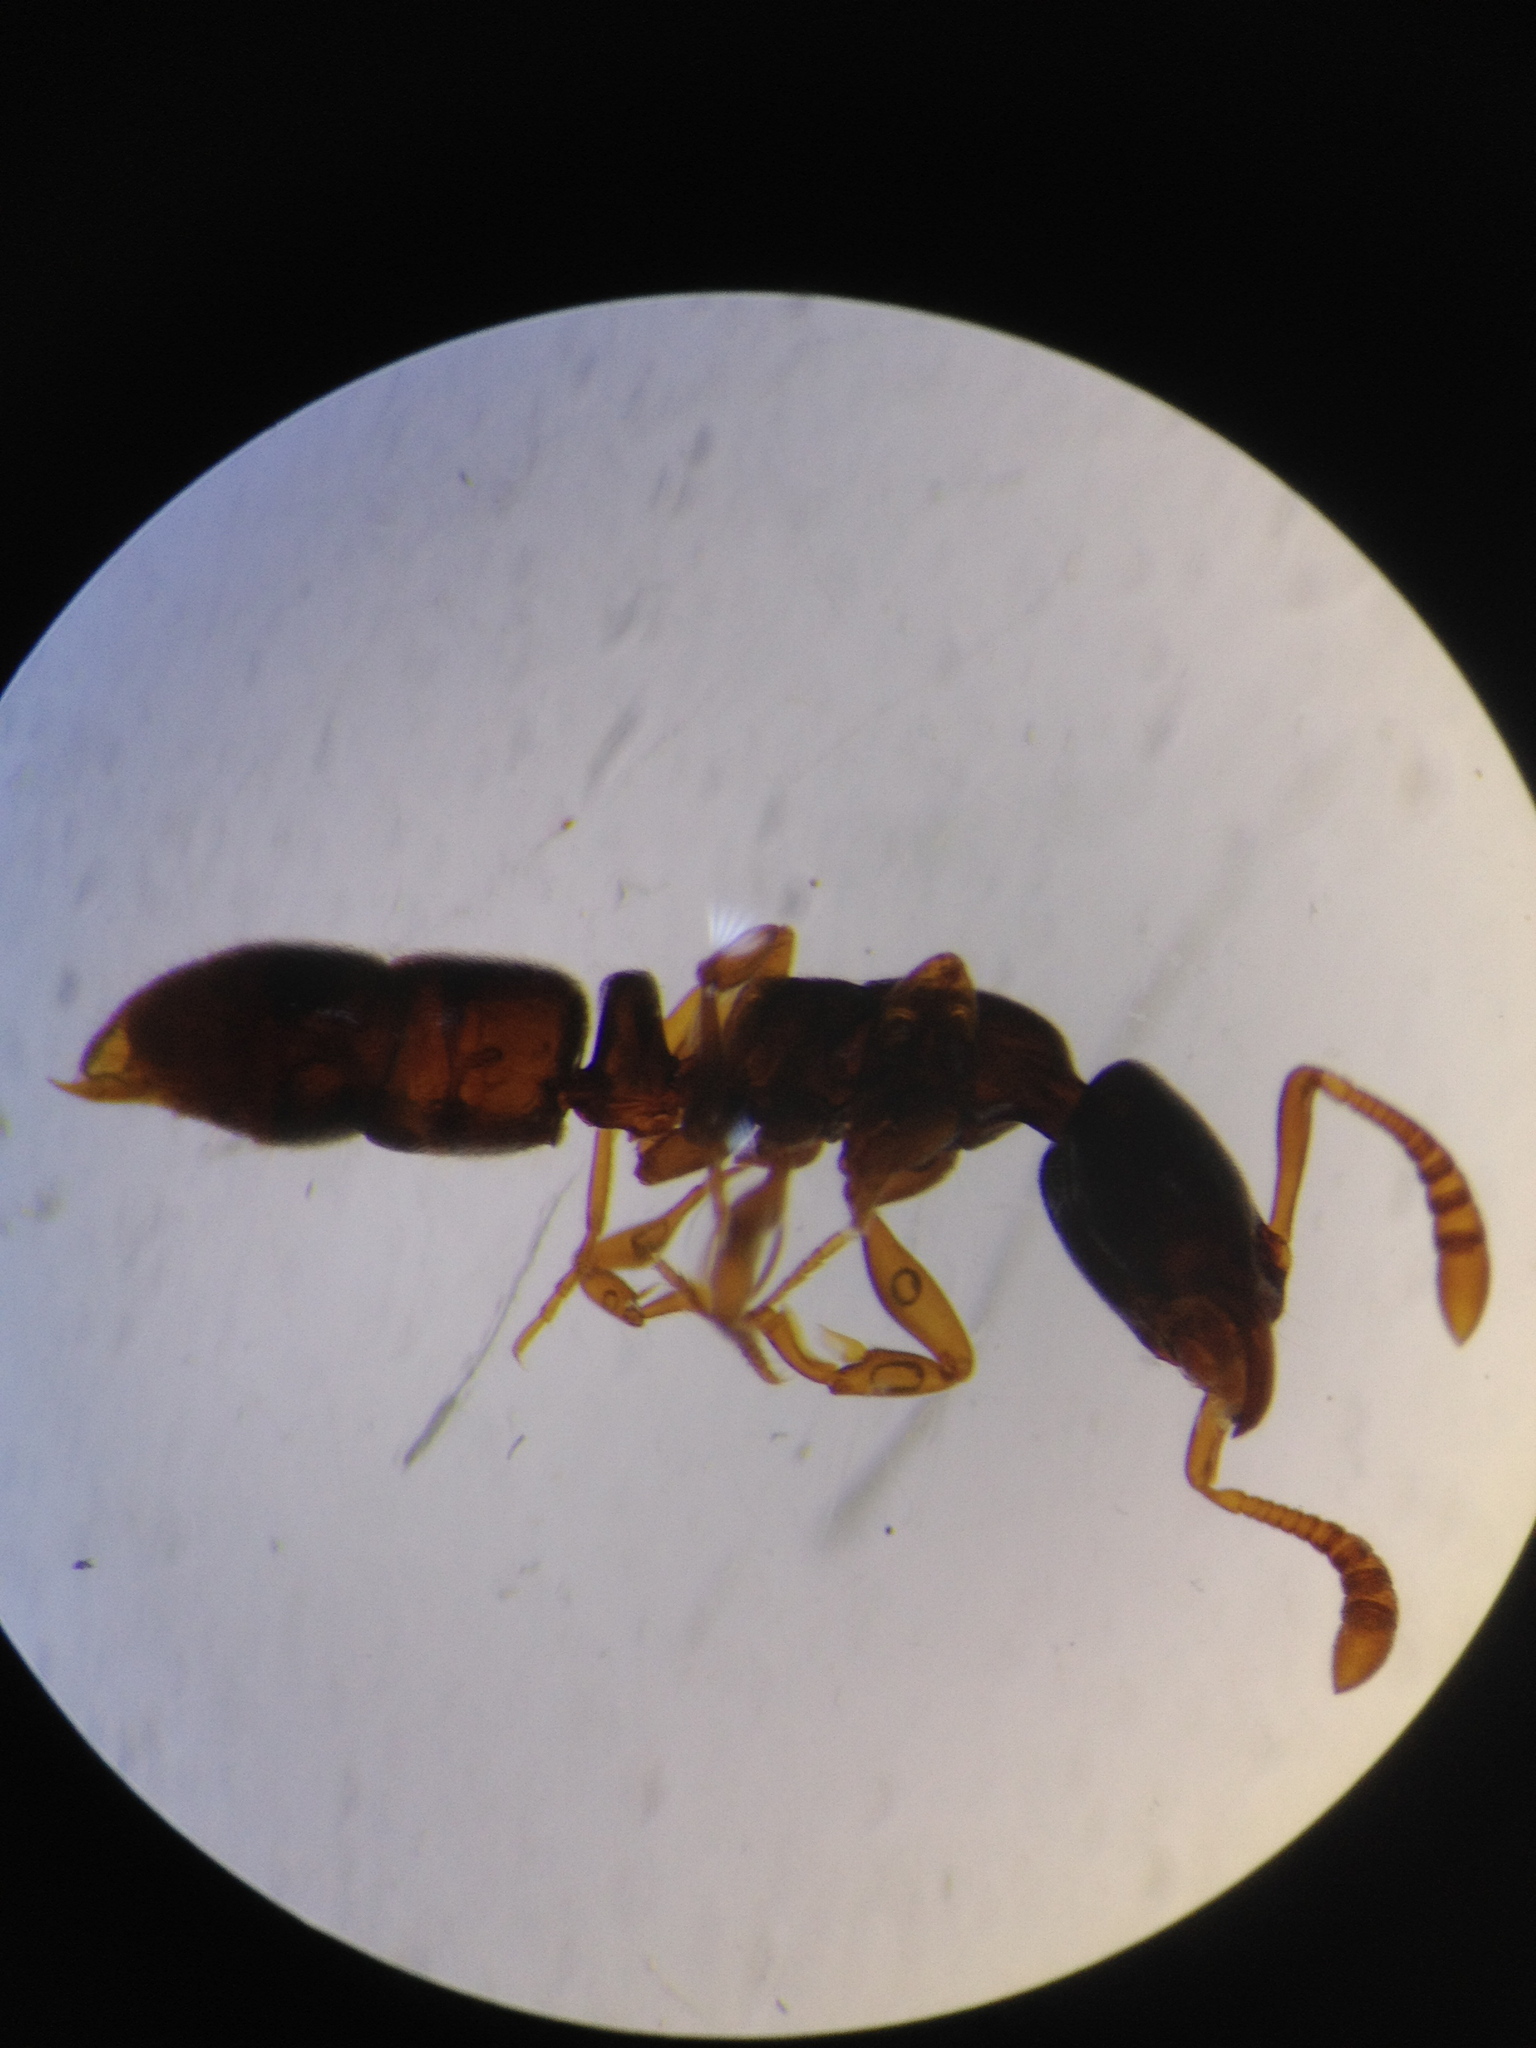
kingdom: Animalia
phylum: Arthropoda
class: Insecta
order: Hymenoptera
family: Formicidae
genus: Ponera
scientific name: Ponera testacea
